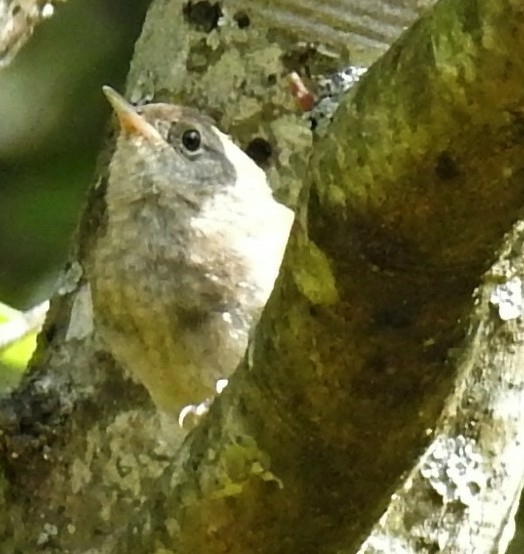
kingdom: Animalia
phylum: Chordata
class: Aves
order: Passeriformes
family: Troglodytidae
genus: Troglodytes
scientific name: Troglodytes aedon
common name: House wren
